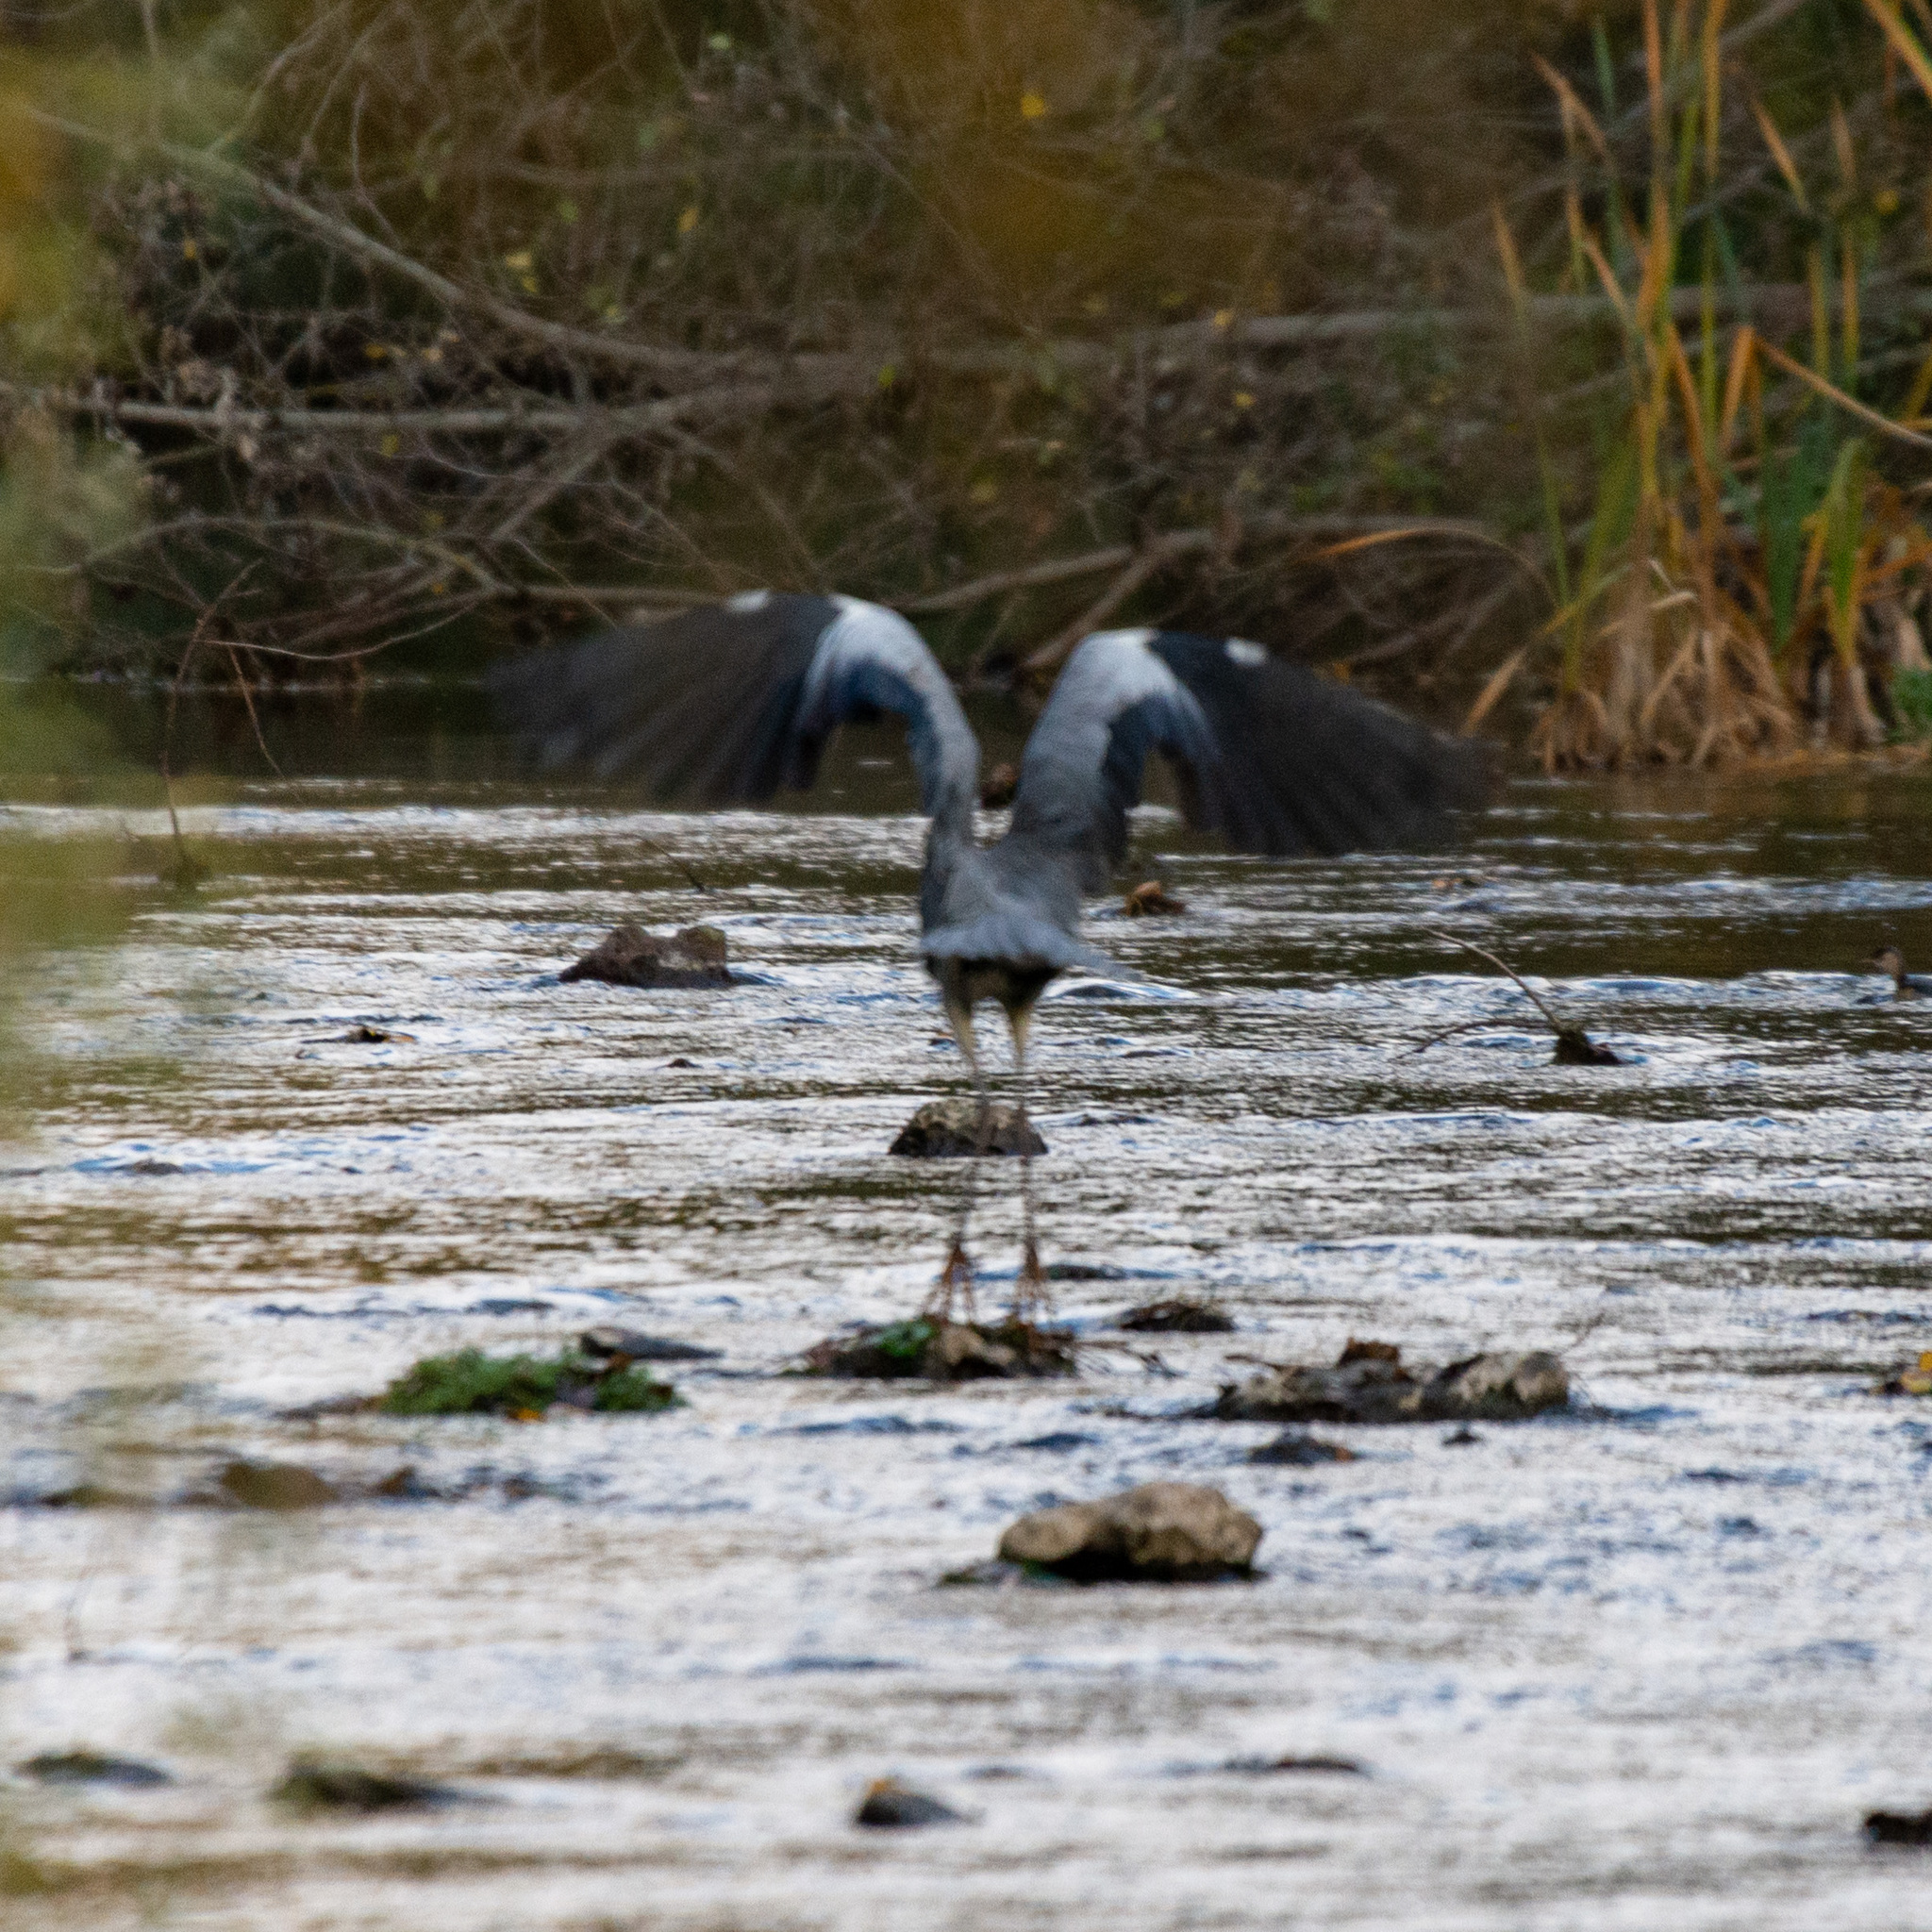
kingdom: Animalia
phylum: Chordata
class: Aves
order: Pelecaniformes
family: Ardeidae
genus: Ardea
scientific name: Ardea cinerea
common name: Grey heron
